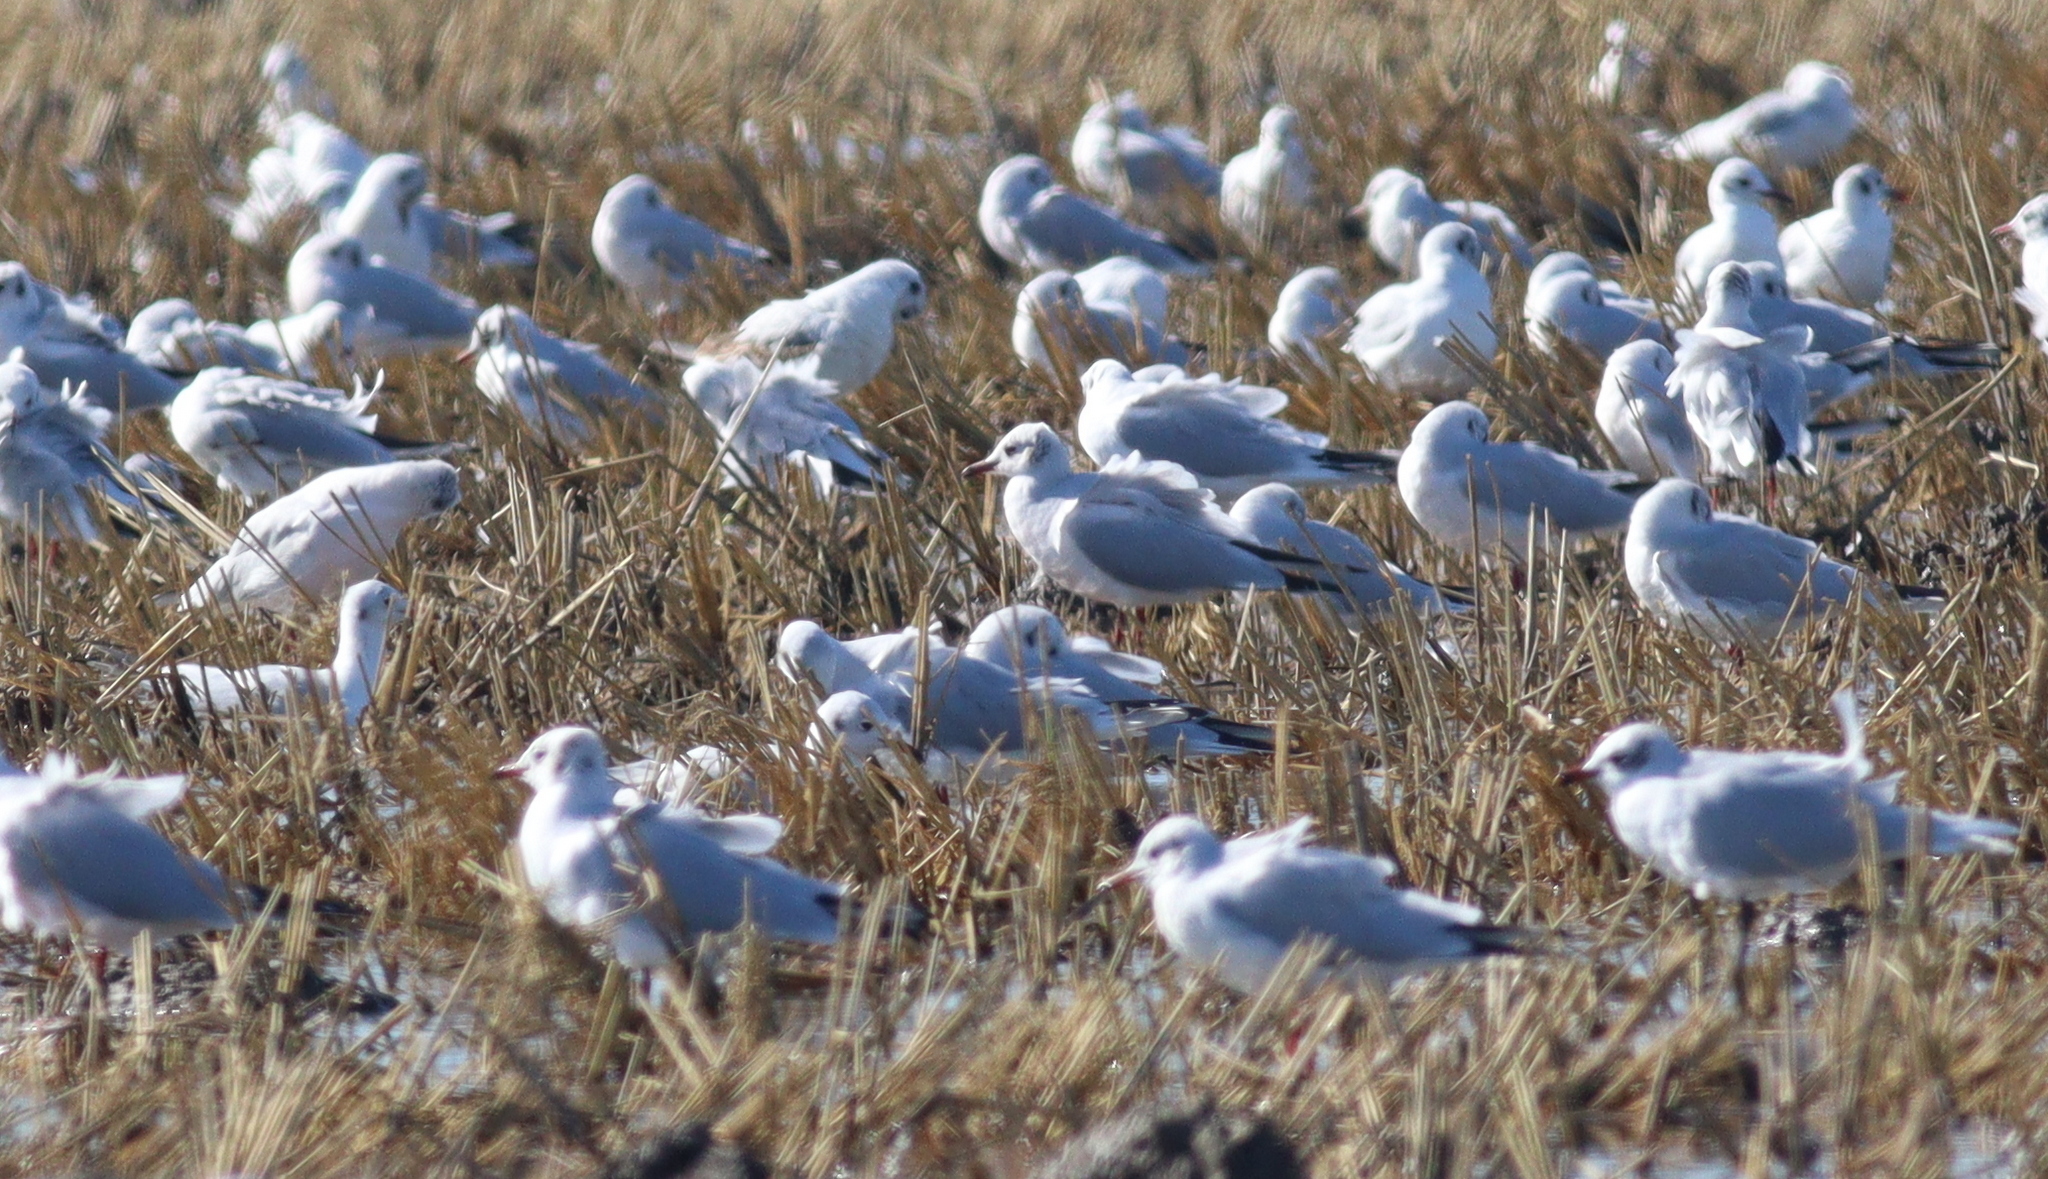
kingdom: Animalia
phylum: Chordata
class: Aves
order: Charadriiformes
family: Laridae
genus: Chroicocephalus
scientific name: Chroicocephalus ridibundus
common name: Black-headed gull
